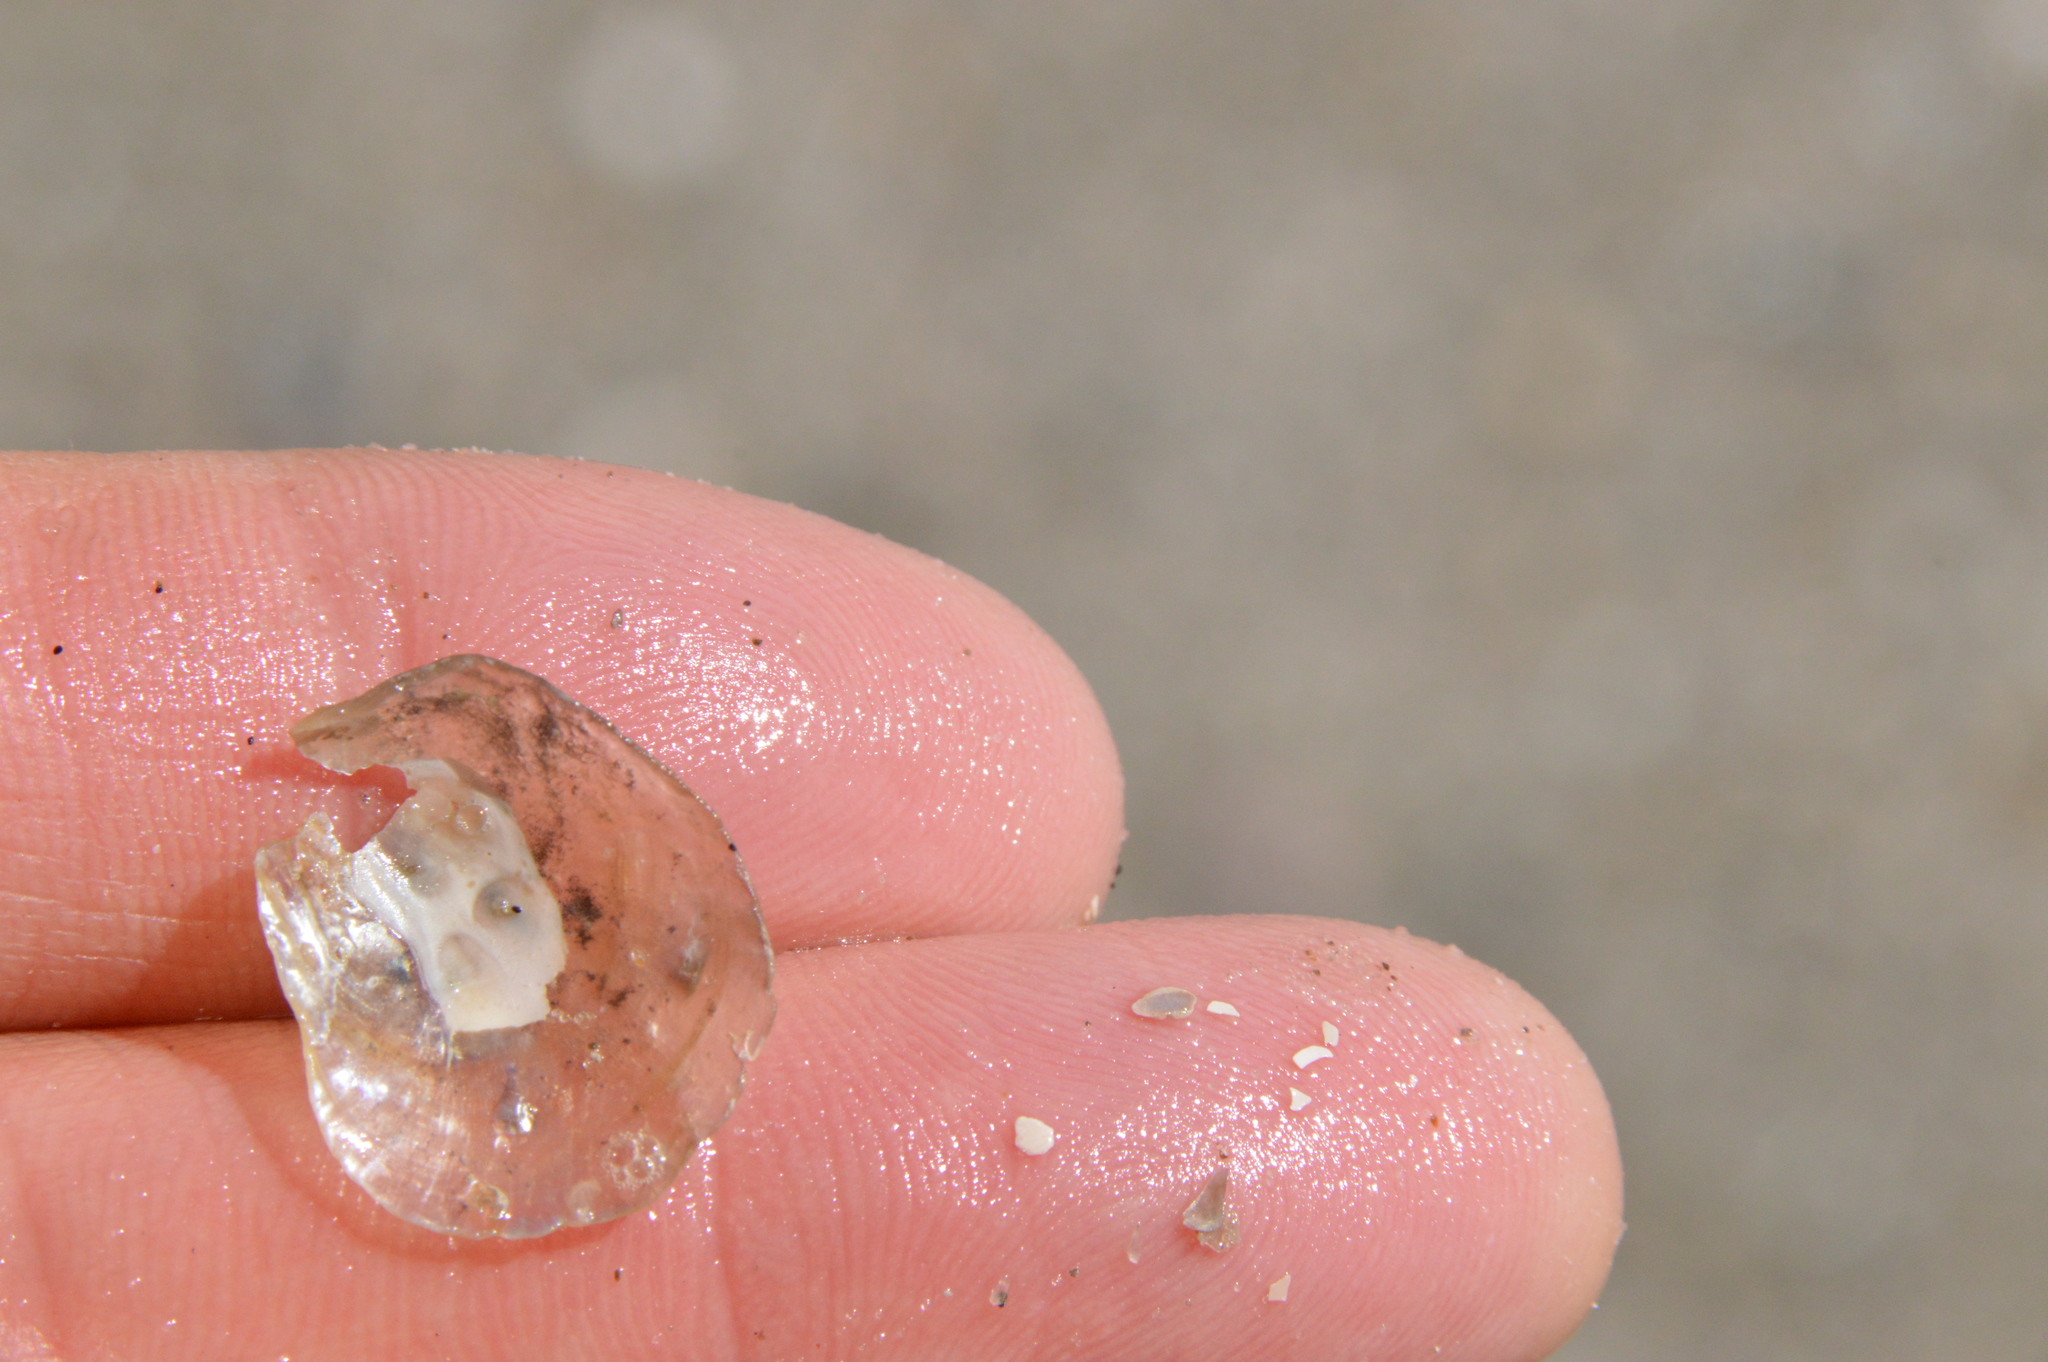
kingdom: Animalia
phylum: Mollusca
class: Bivalvia
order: Pectinida
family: Anomiidae
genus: Anomia
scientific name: Anomia simplex
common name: Common jingle shell
